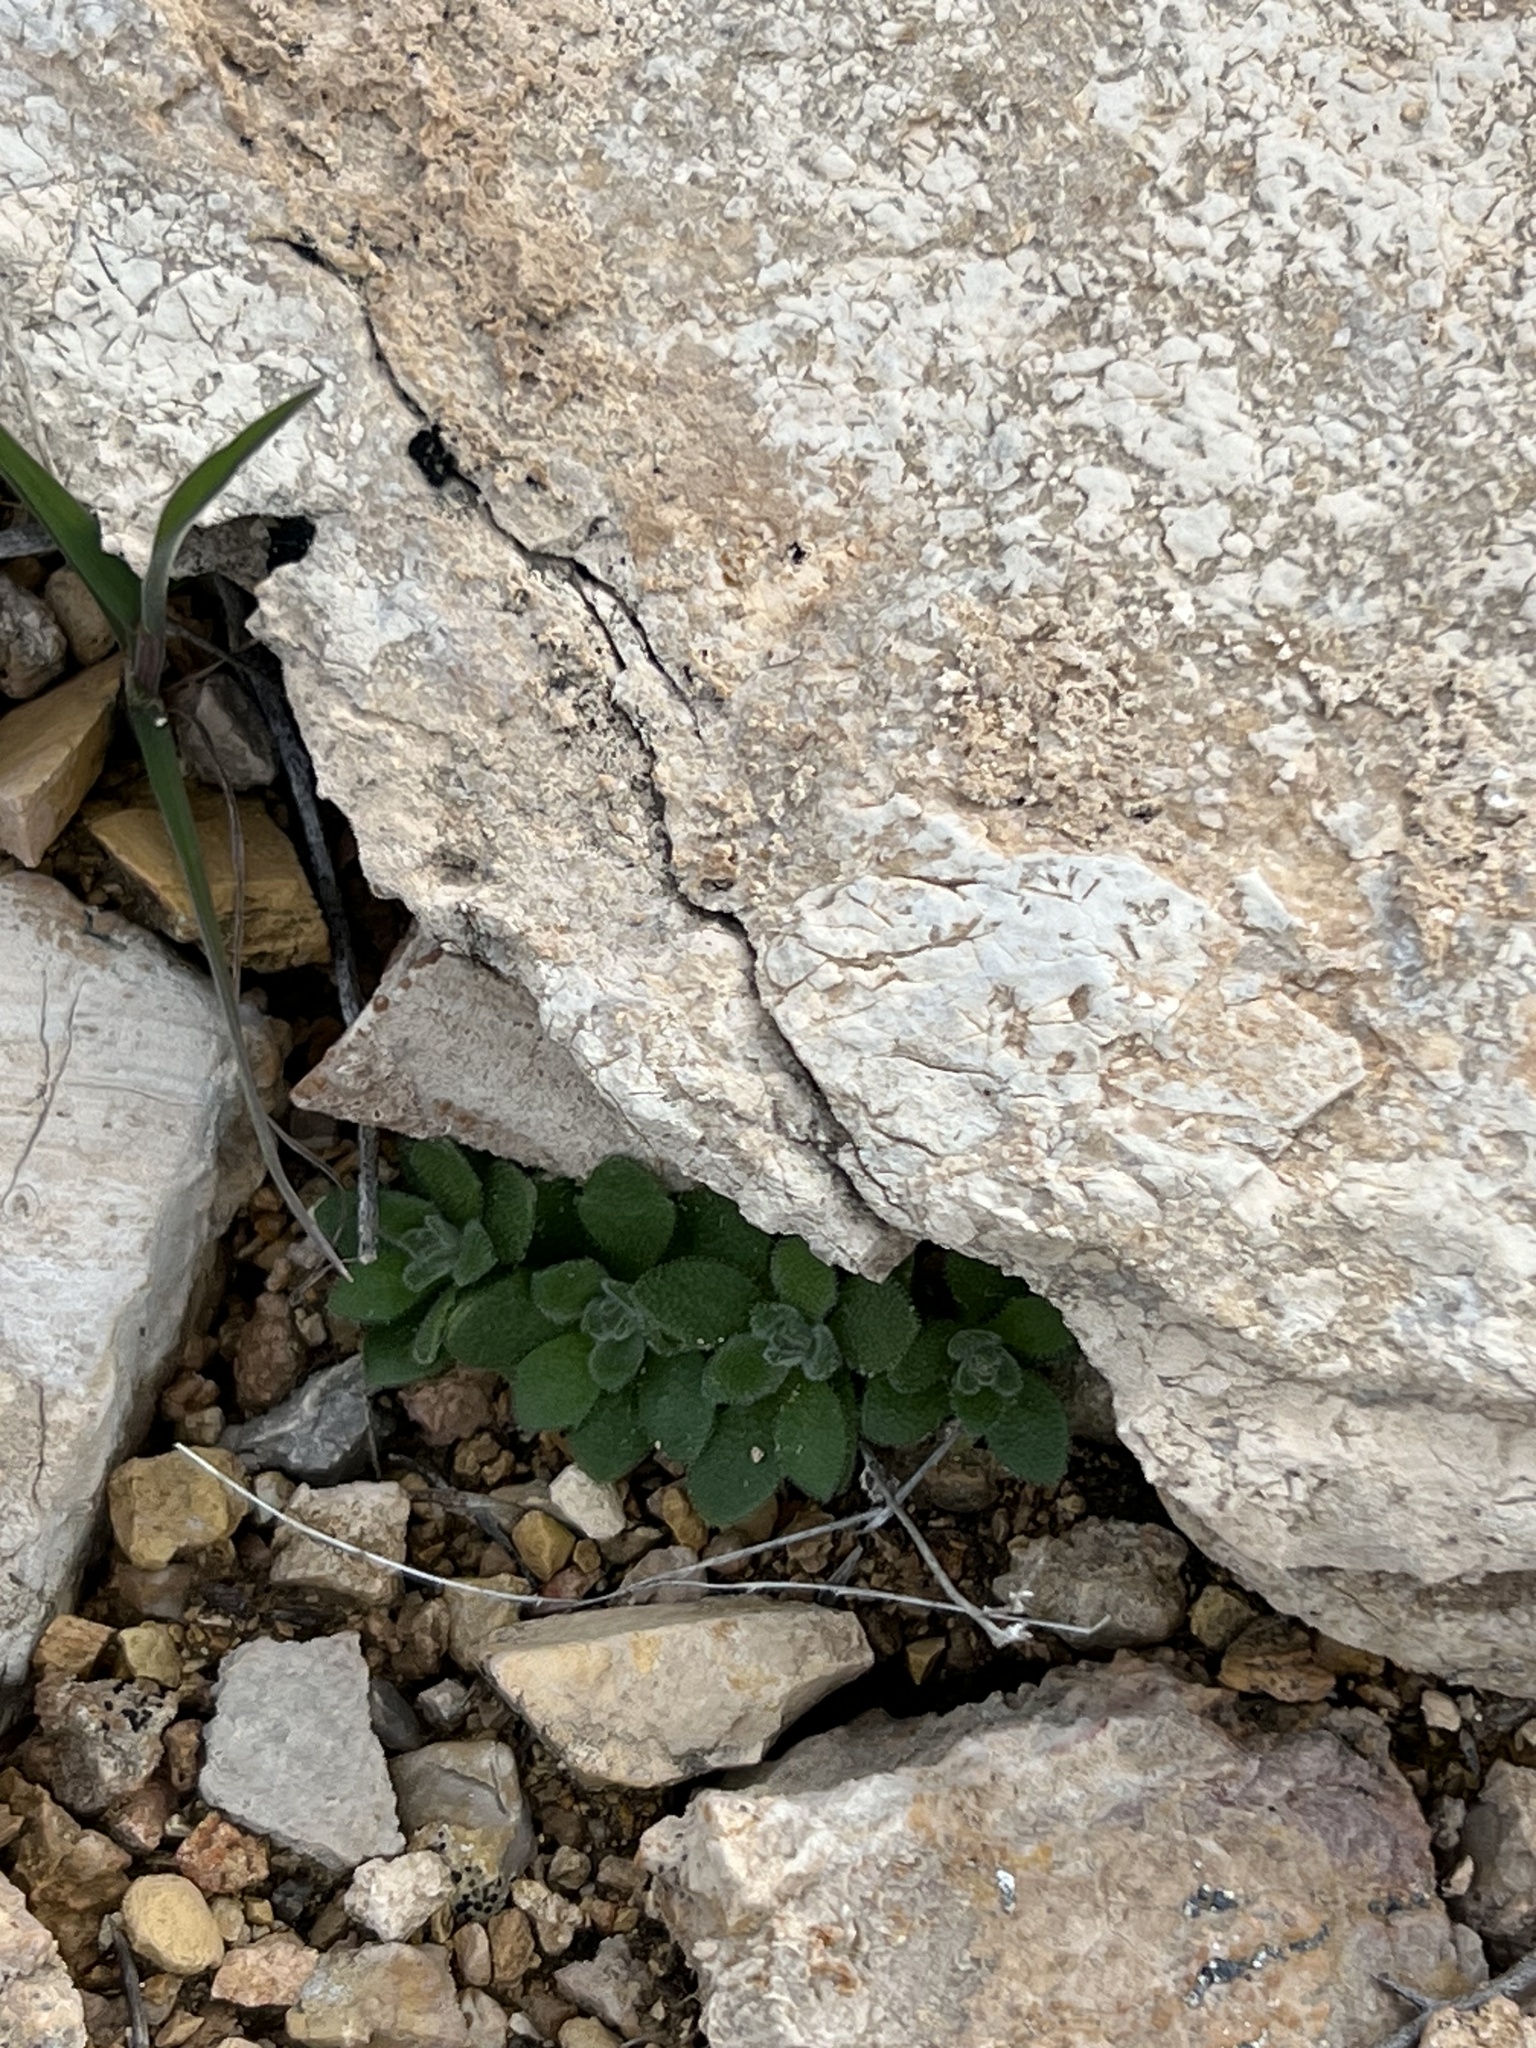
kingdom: Plantae
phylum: Tracheophyta
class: Magnoliopsida
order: Brassicales
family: Brassicaceae
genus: Tomostima
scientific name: Tomostima cuneifolia
